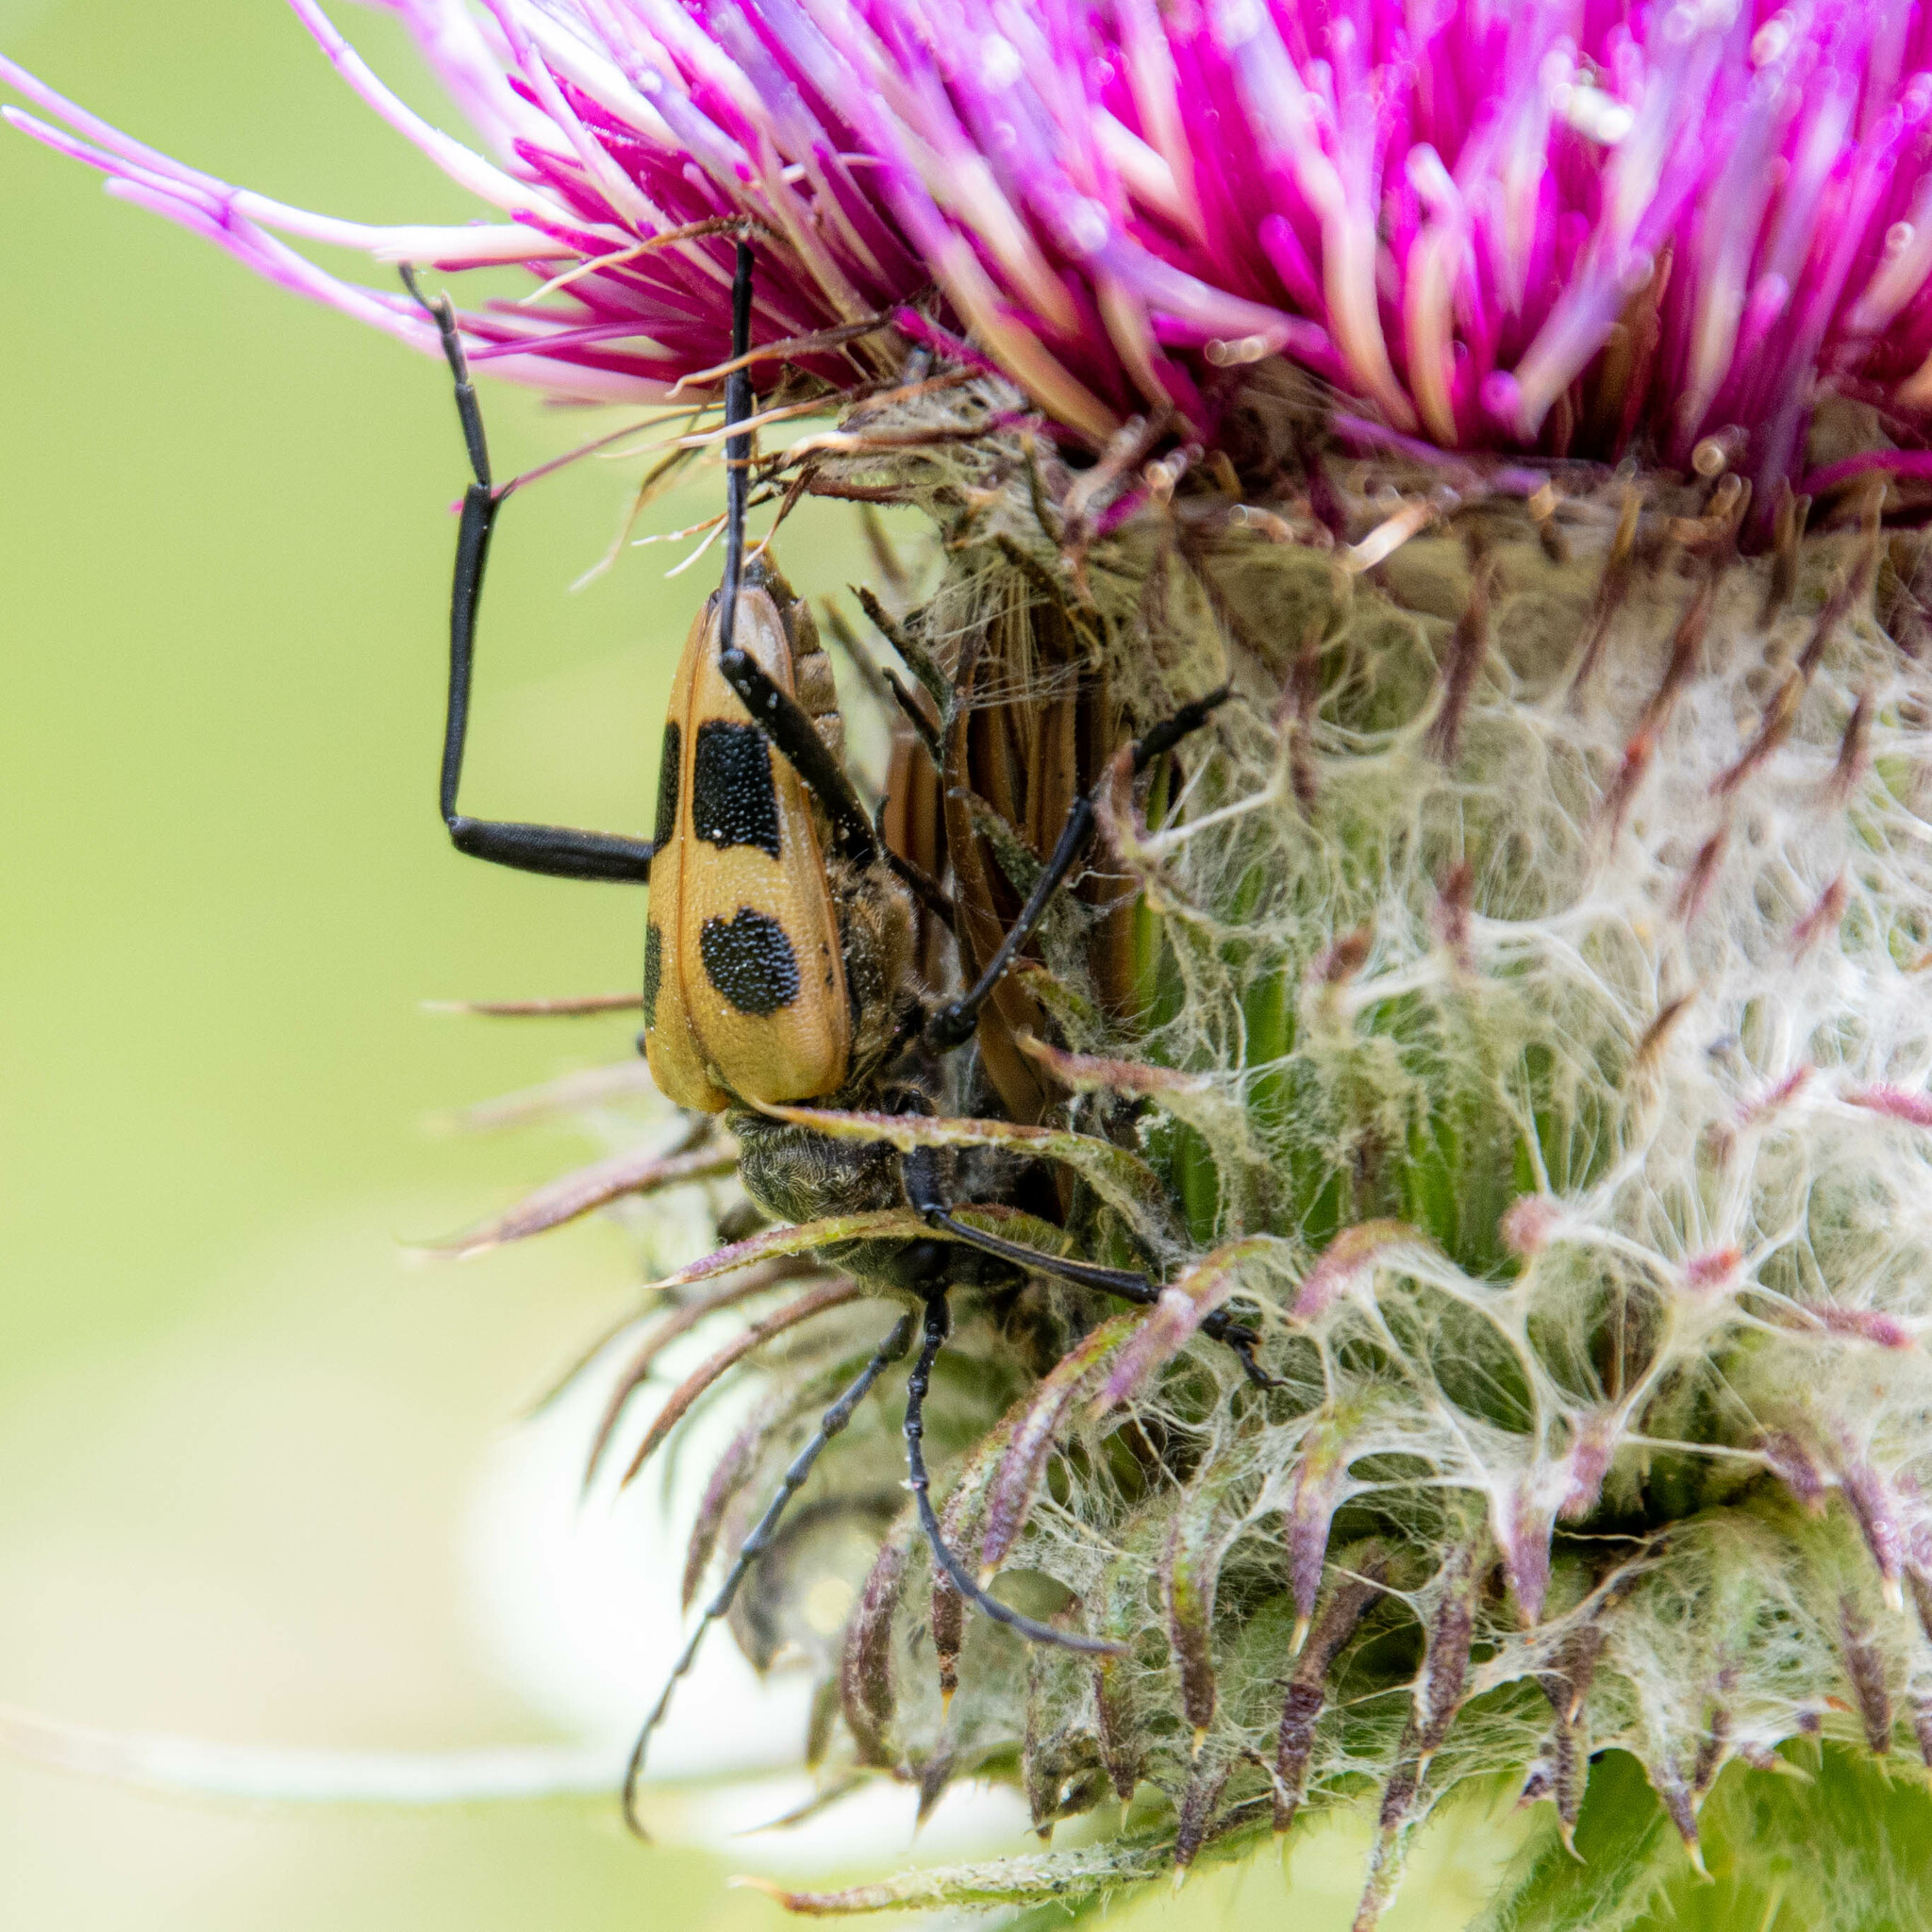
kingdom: Animalia
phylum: Arthropoda
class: Insecta
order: Coleoptera
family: Cerambycidae
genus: Pachyta
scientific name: Pachyta quadrimaculata
